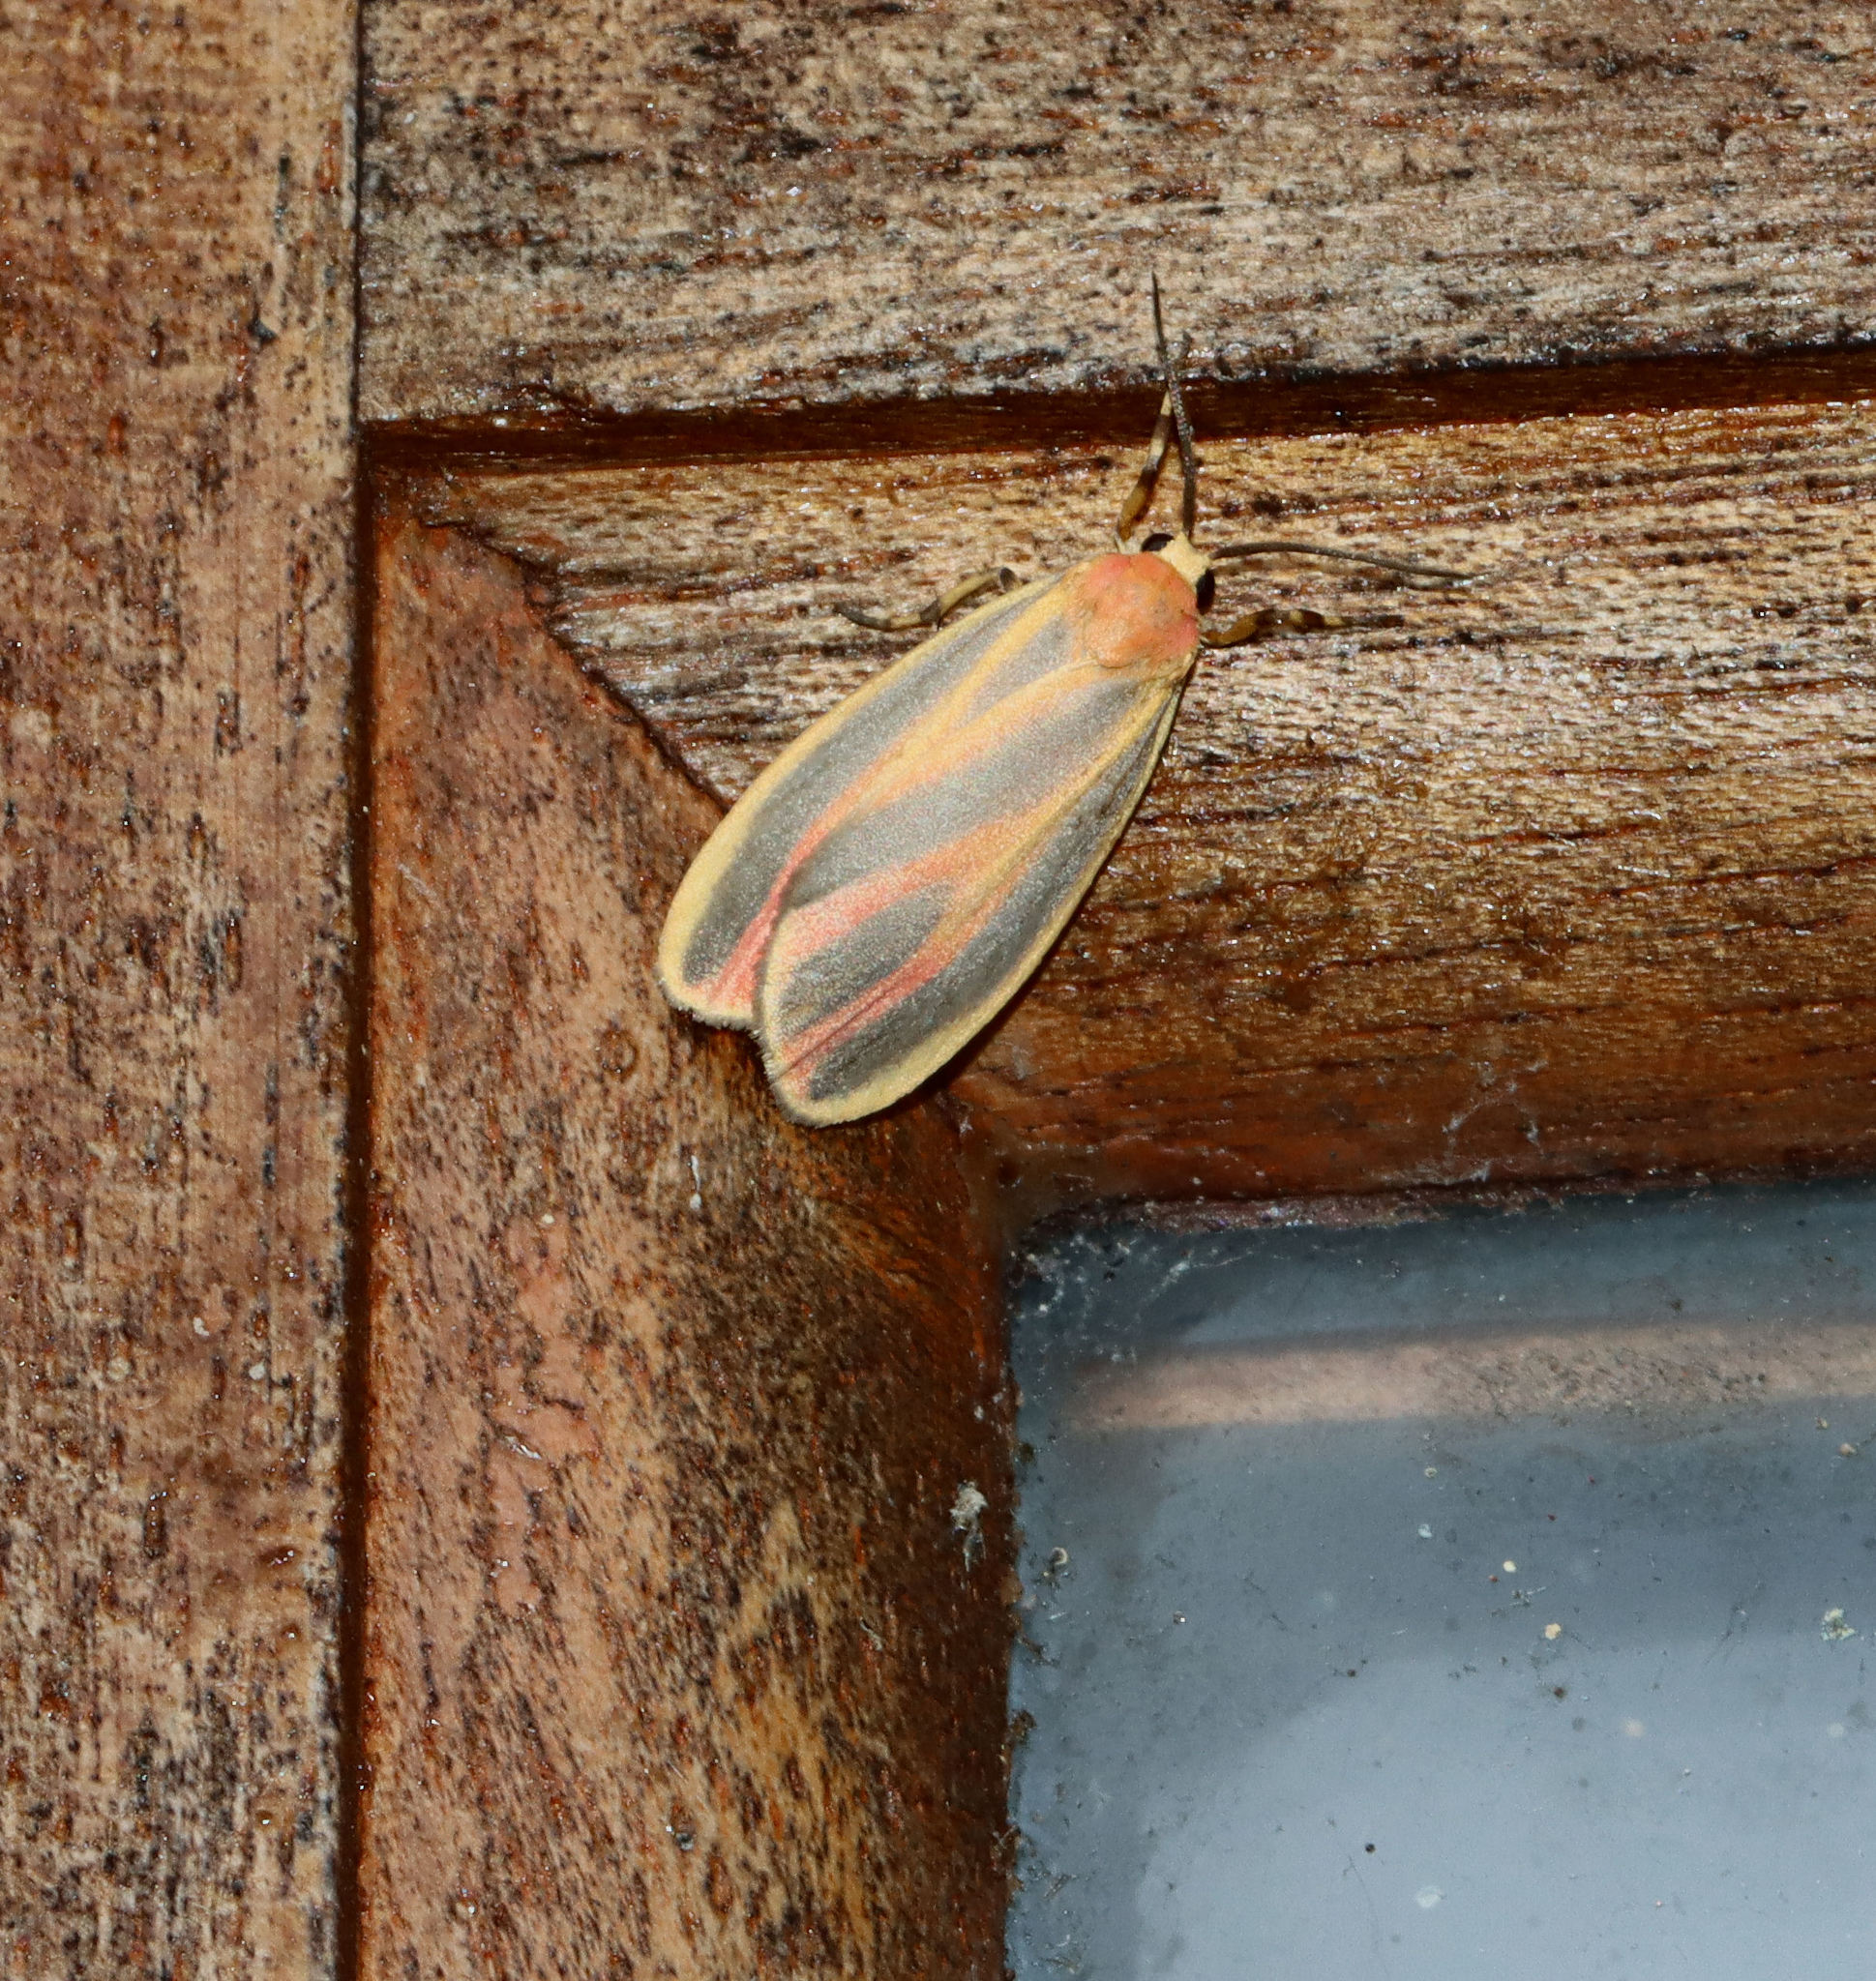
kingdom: Animalia
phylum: Arthropoda
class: Insecta
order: Lepidoptera
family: Erebidae
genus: Hypoprepia
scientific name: Hypoprepia fucosa
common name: Painted lichen moth
